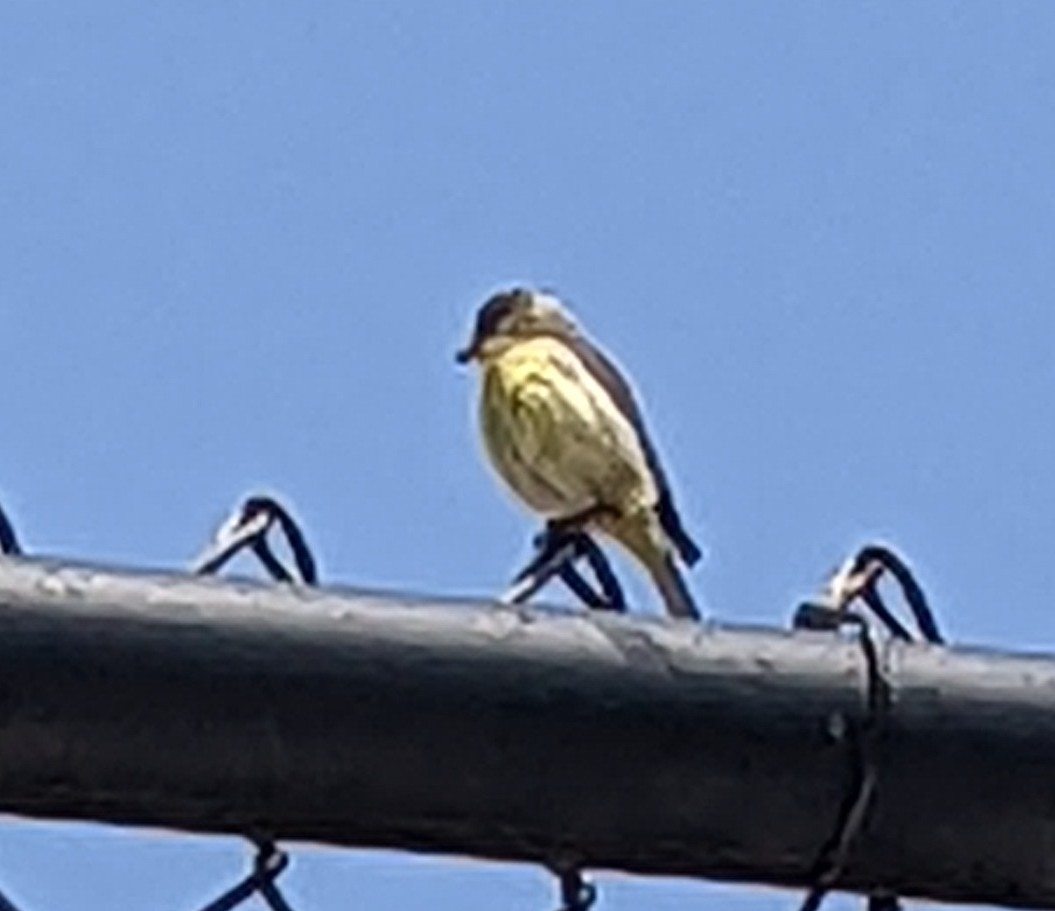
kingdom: Animalia
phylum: Chordata
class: Aves
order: Passeriformes
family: Fringillidae
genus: Spinus
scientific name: Spinus psaltria
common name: Lesser goldfinch
